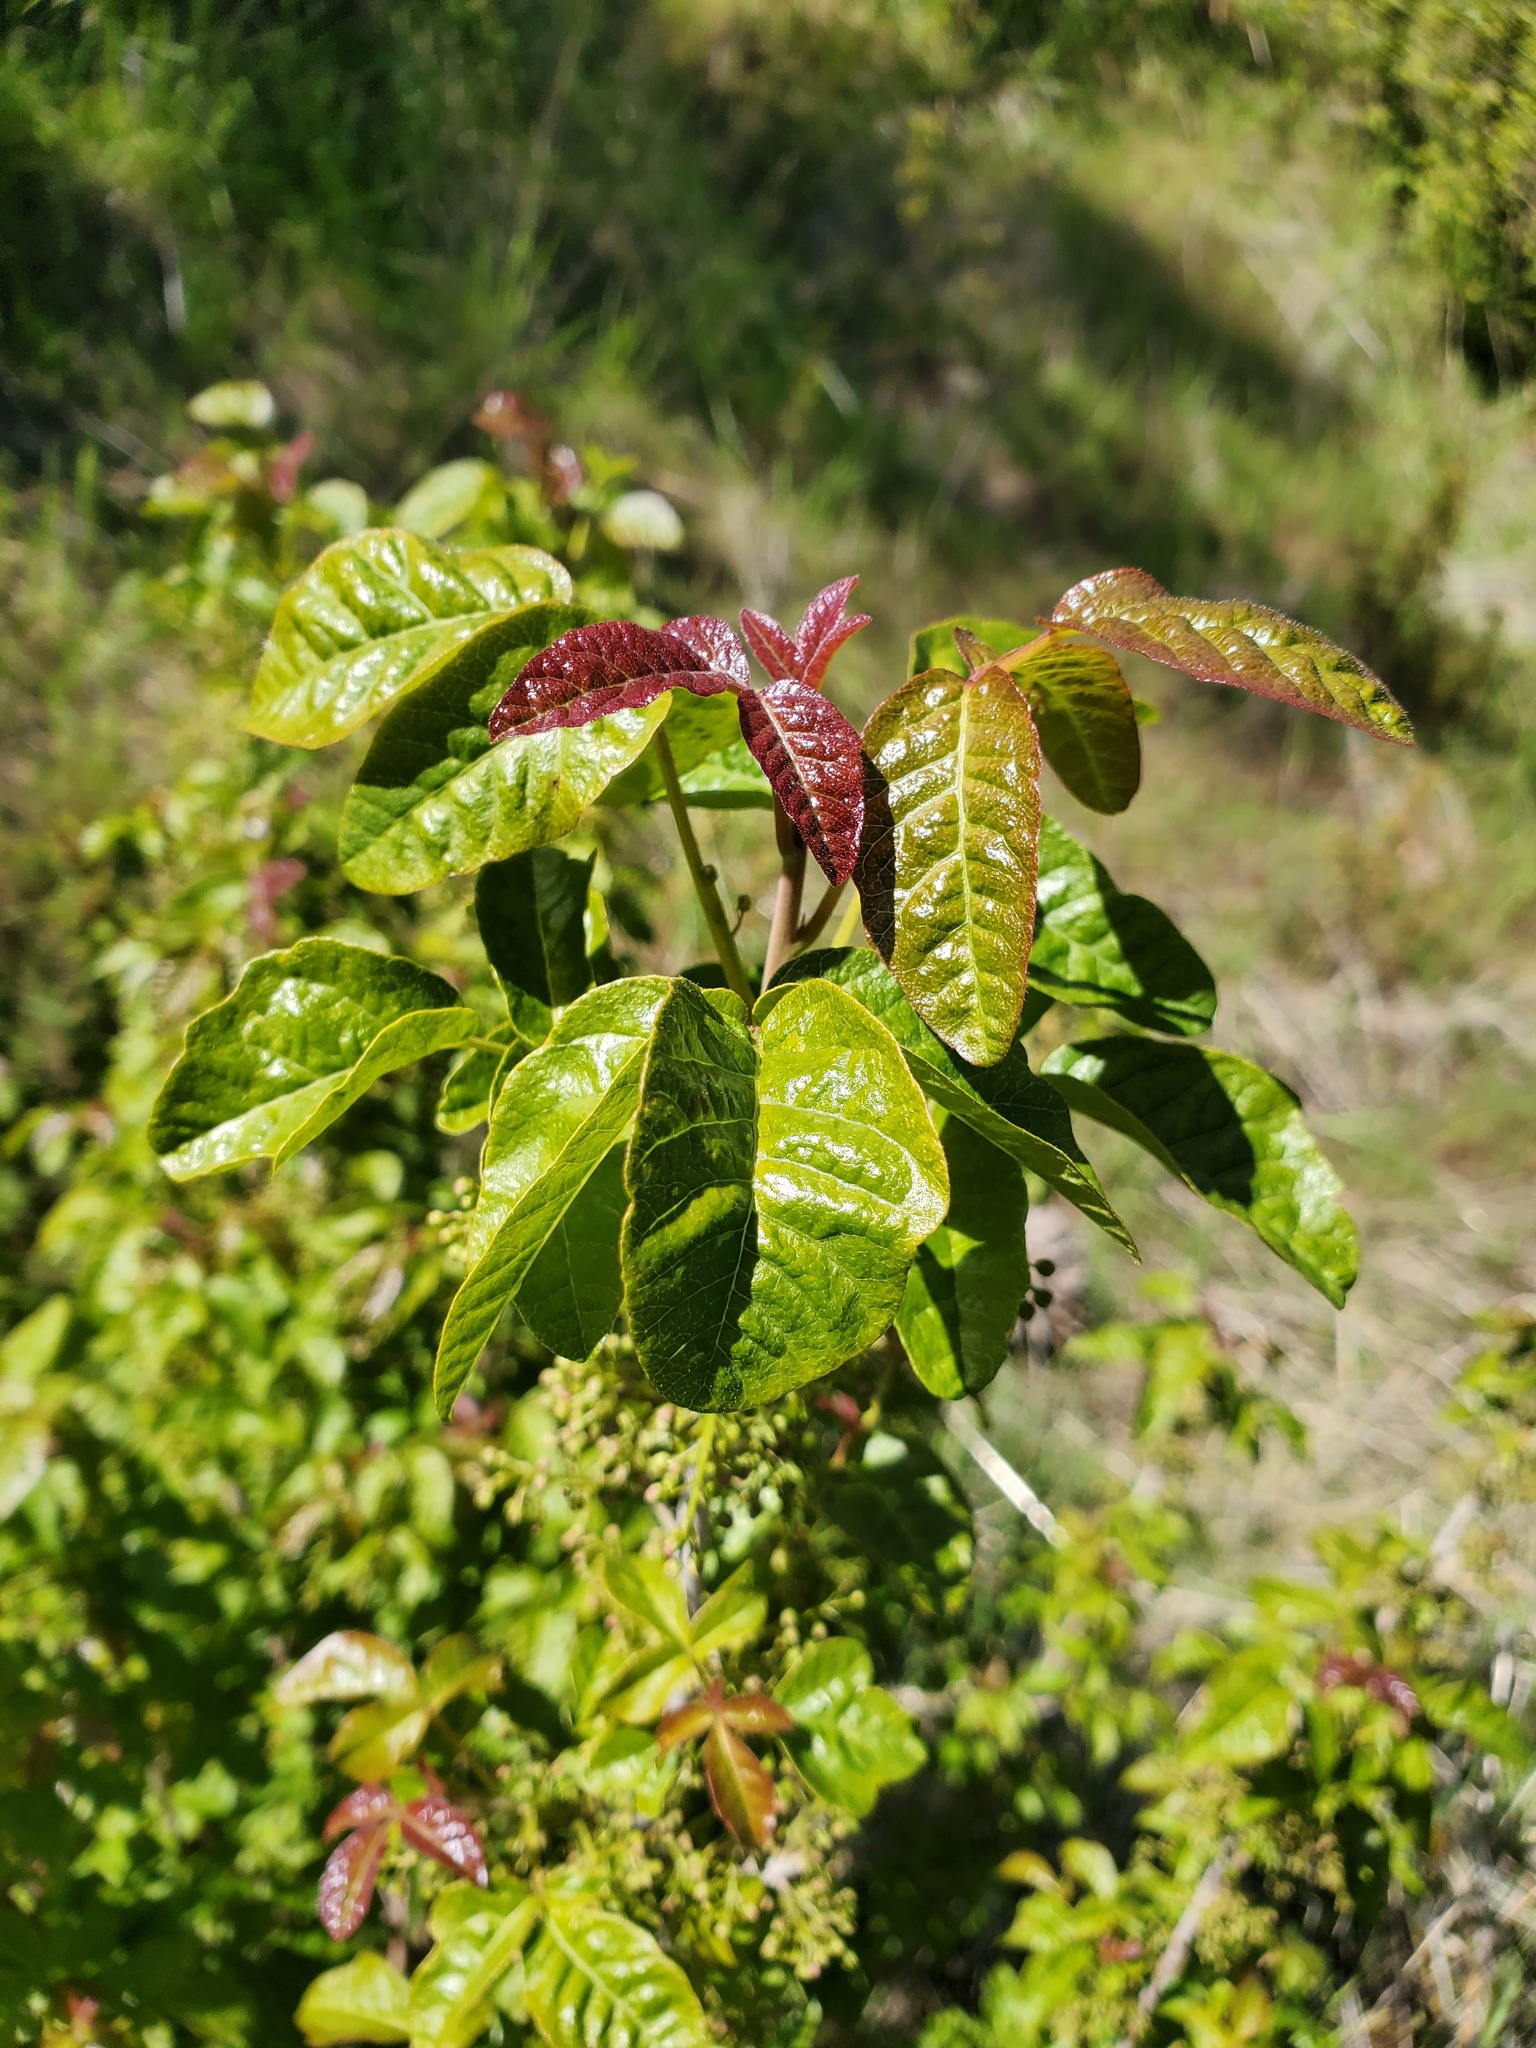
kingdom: Plantae
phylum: Tracheophyta
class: Magnoliopsida
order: Sapindales
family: Anacardiaceae
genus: Toxicodendron
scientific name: Toxicodendron diversilobum
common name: Pacific poison-oak
